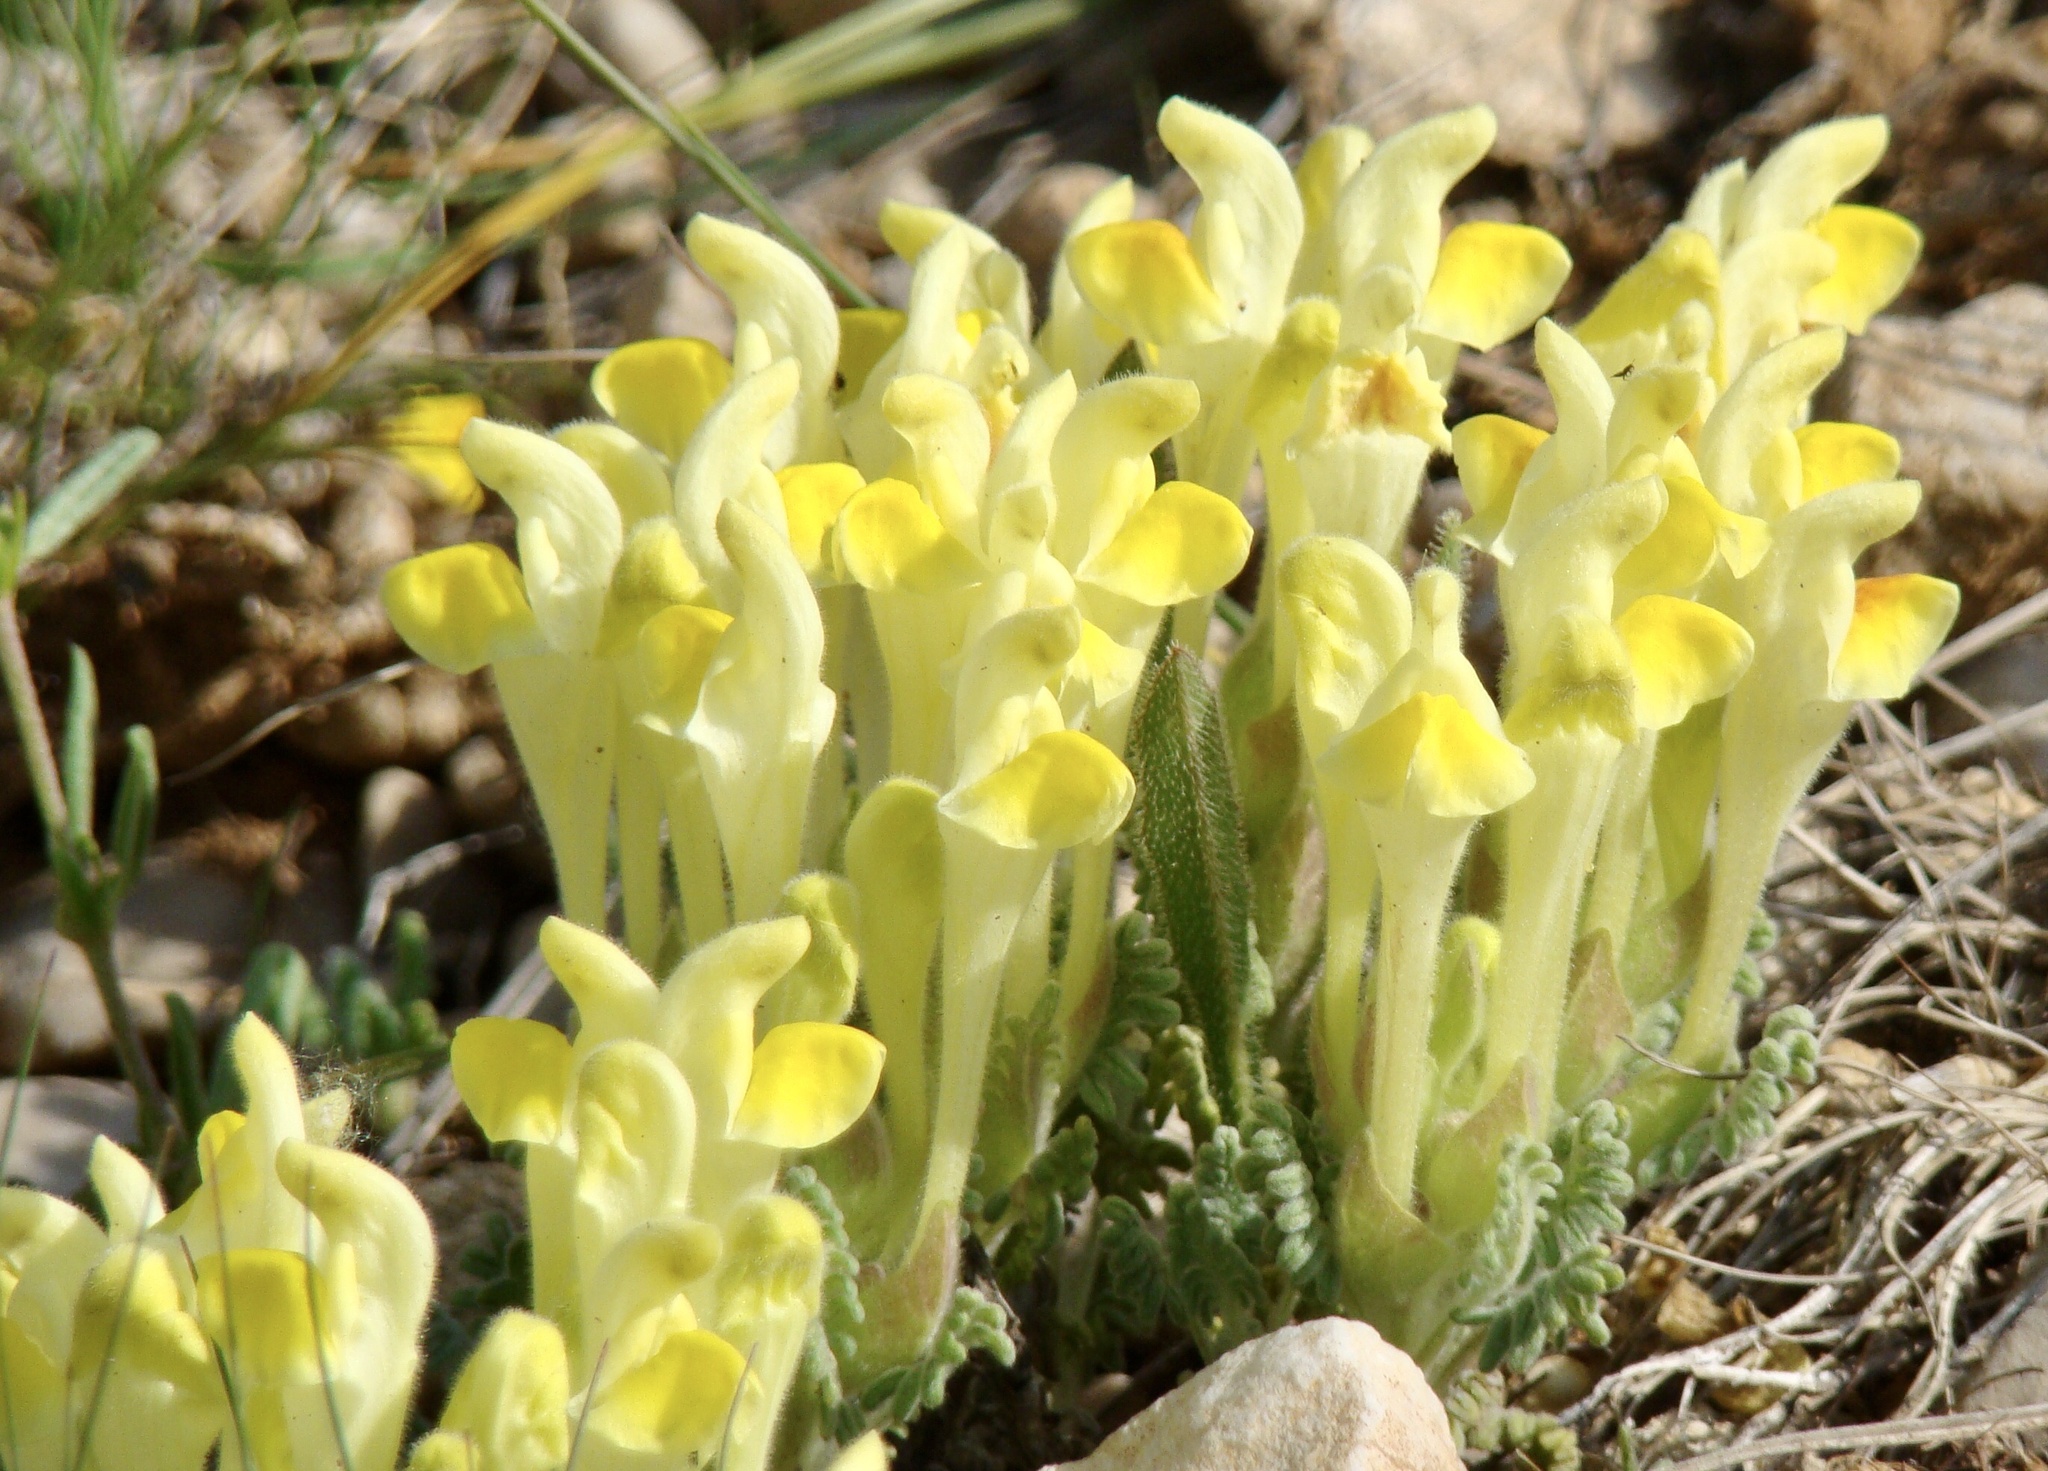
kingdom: Plantae
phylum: Tracheophyta
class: Magnoliopsida
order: Lamiales
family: Lamiaceae
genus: Scutellaria
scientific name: Scutellaria orientalis
